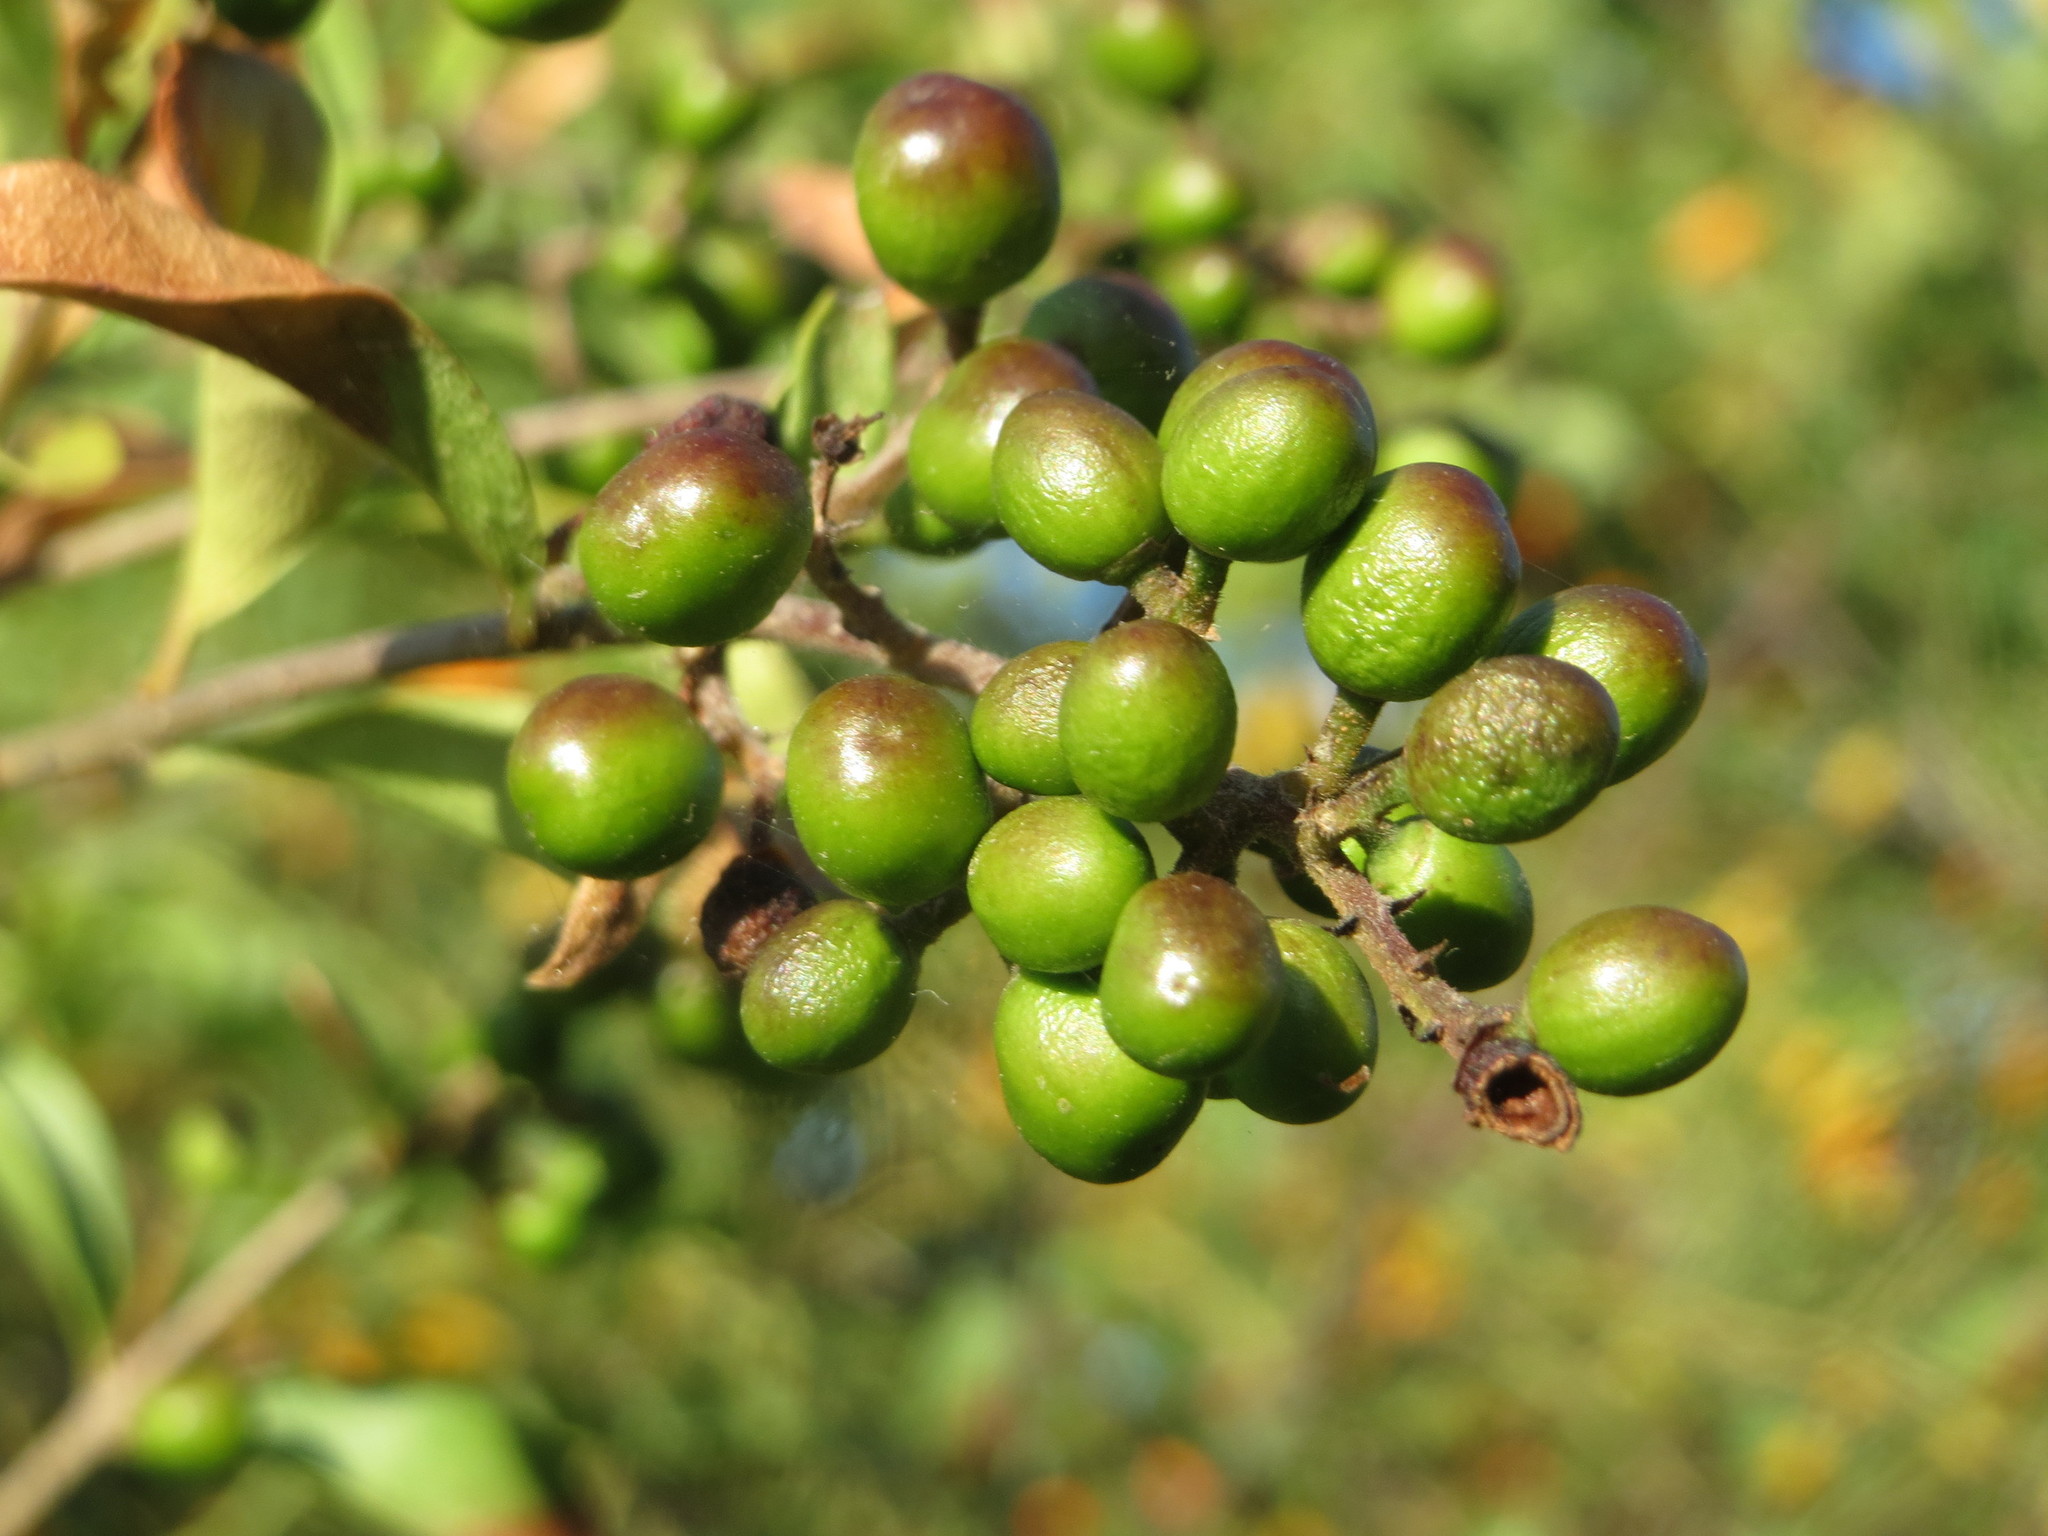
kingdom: Plantae
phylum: Tracheophyta
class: Magnoliopsida
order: Lamiales
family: Oleaceae
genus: Ligustrum
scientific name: Ligustrum vulgare
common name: Wild privet
